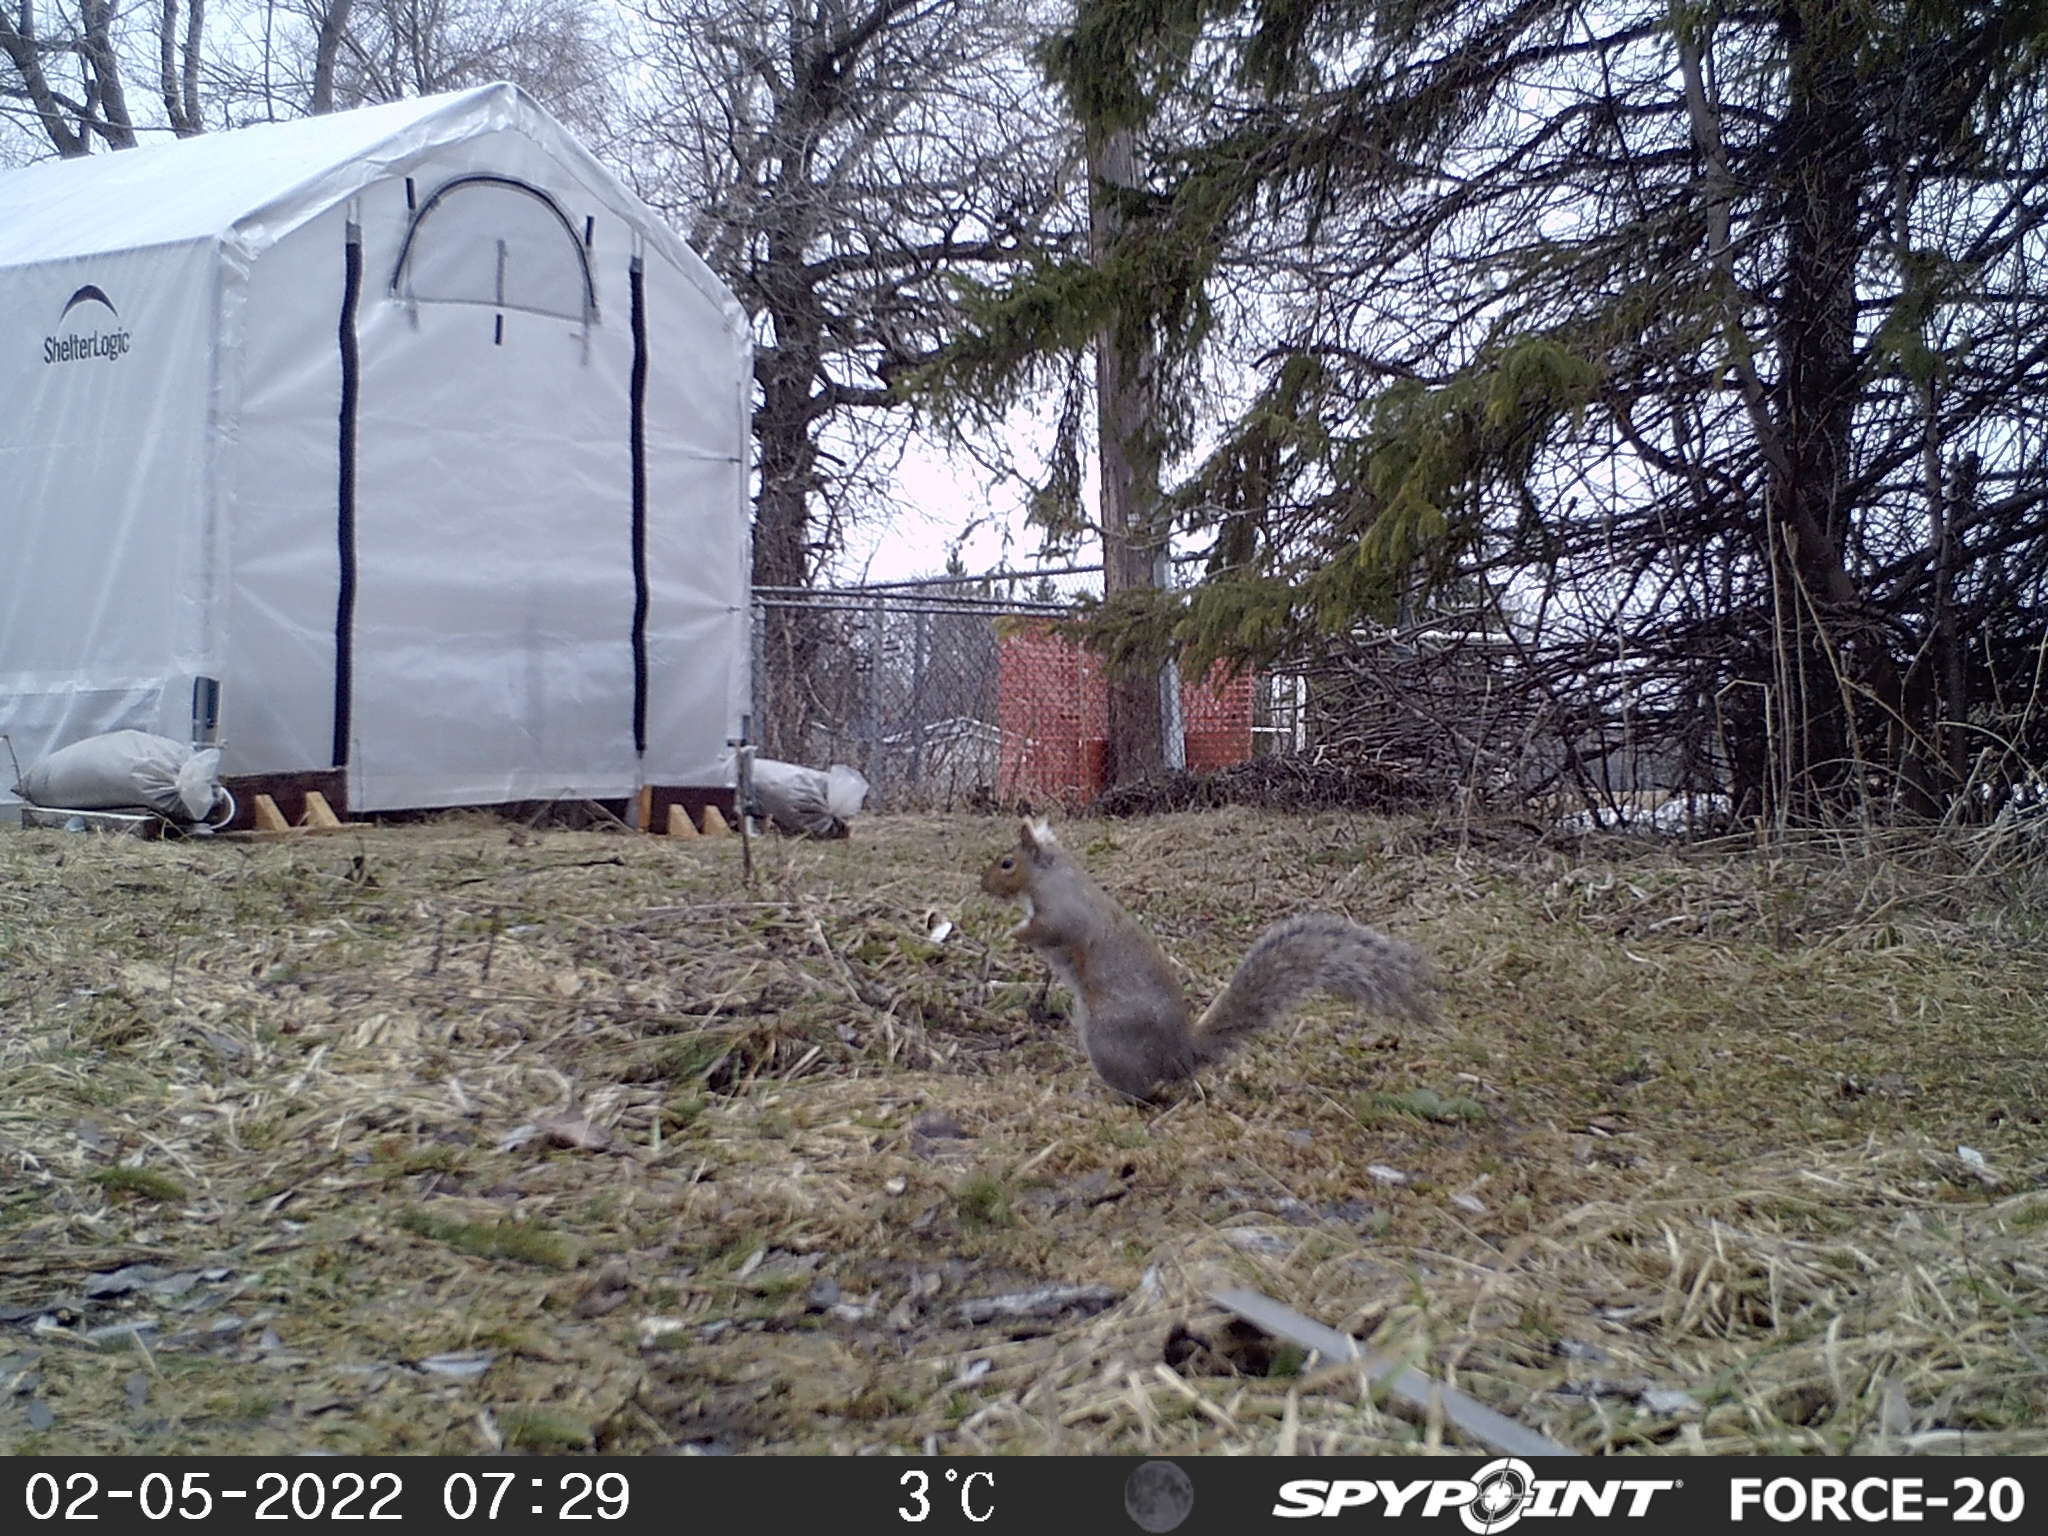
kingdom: Animalia
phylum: Chordata
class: Mammalia
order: Rodentia
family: Sciuridae
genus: Sciurus
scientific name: Sciurus carolinensis
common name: Eastern gray squirrel
